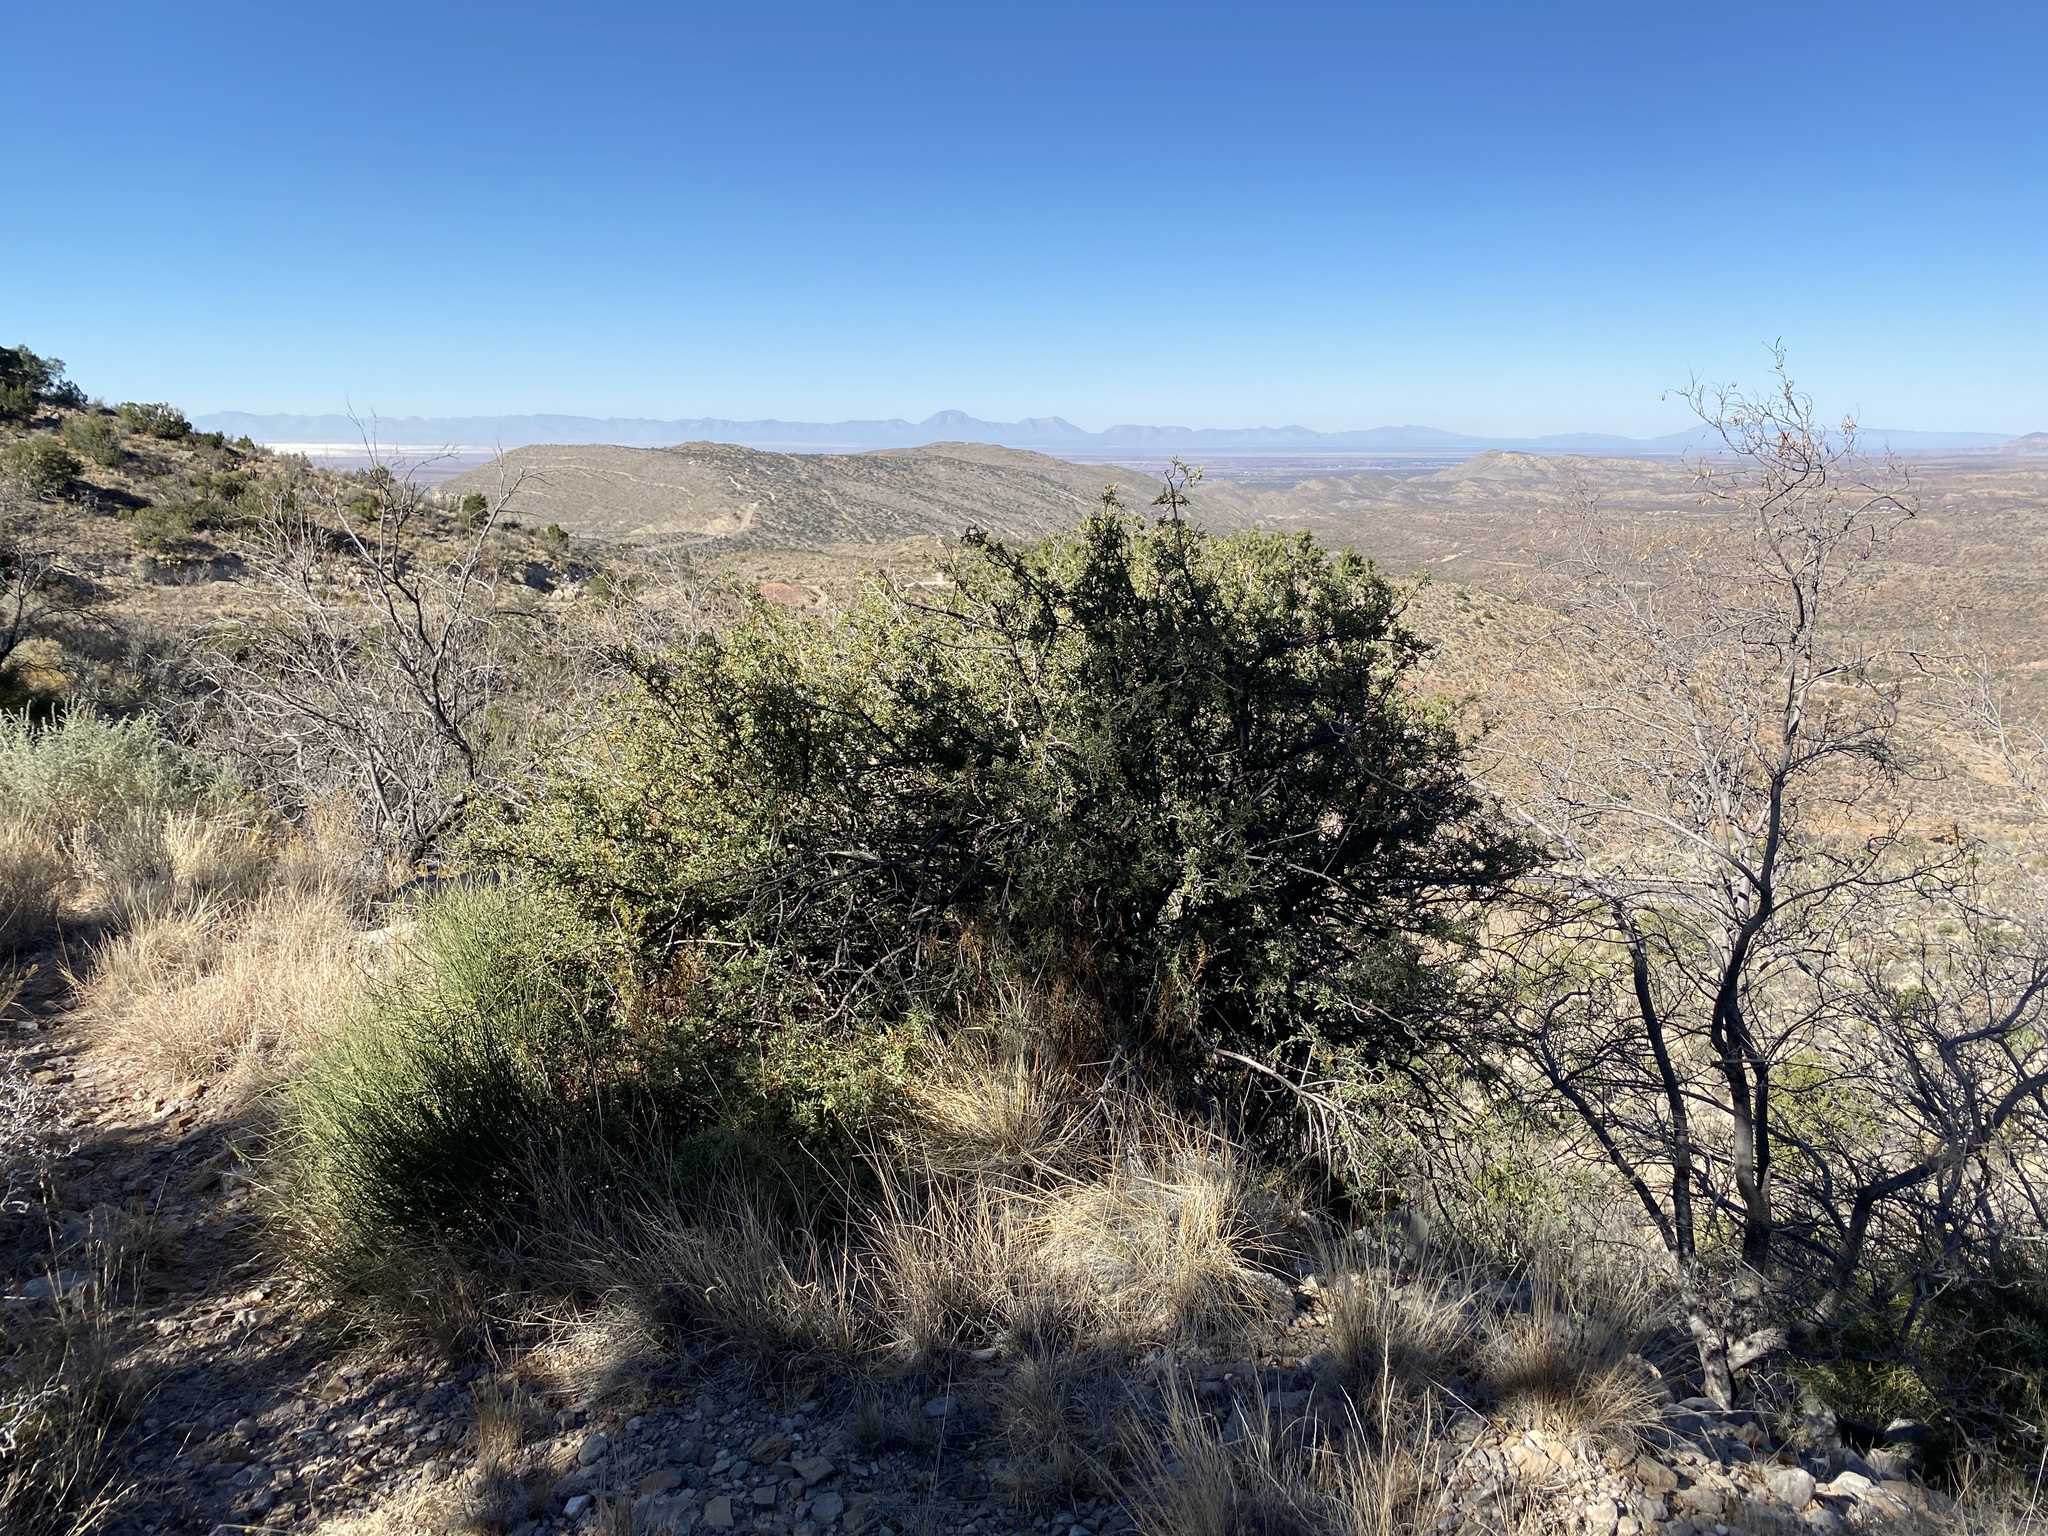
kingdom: Plantae
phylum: Tracheophyta
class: Magnoliopsida
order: Ranunculales
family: Berberidaceae
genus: Alloberberis
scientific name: Alloberberis haematocarpa
